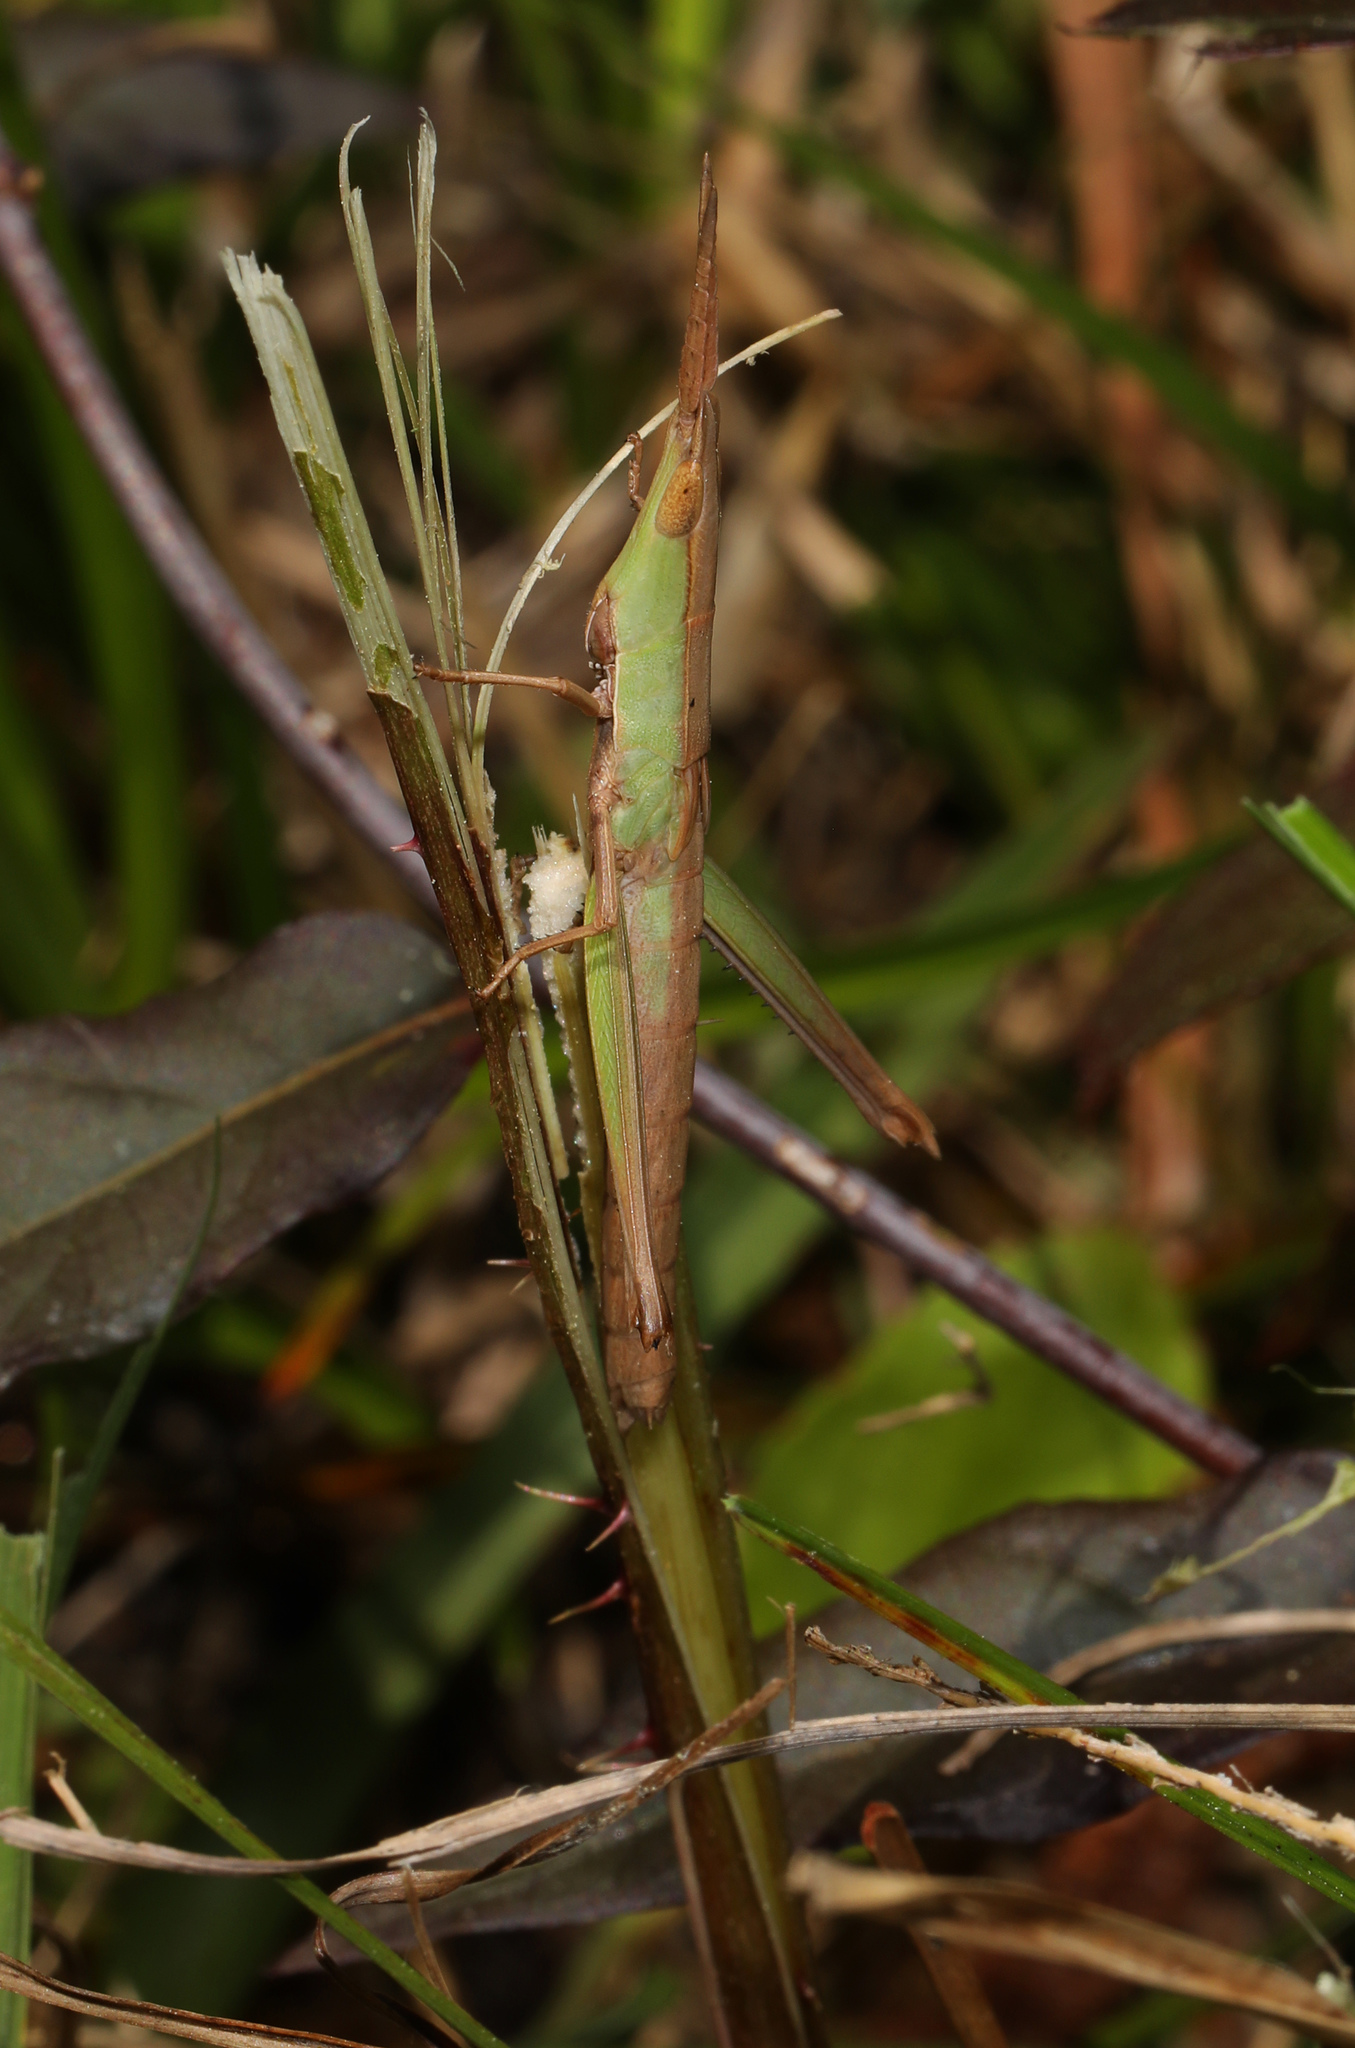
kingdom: Animalia
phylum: Arthropoda
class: Insecta
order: Orthoptera
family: Acrididae
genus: Achurum
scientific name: Achurum carinatum
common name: Long-headed toothpick grasshopper
